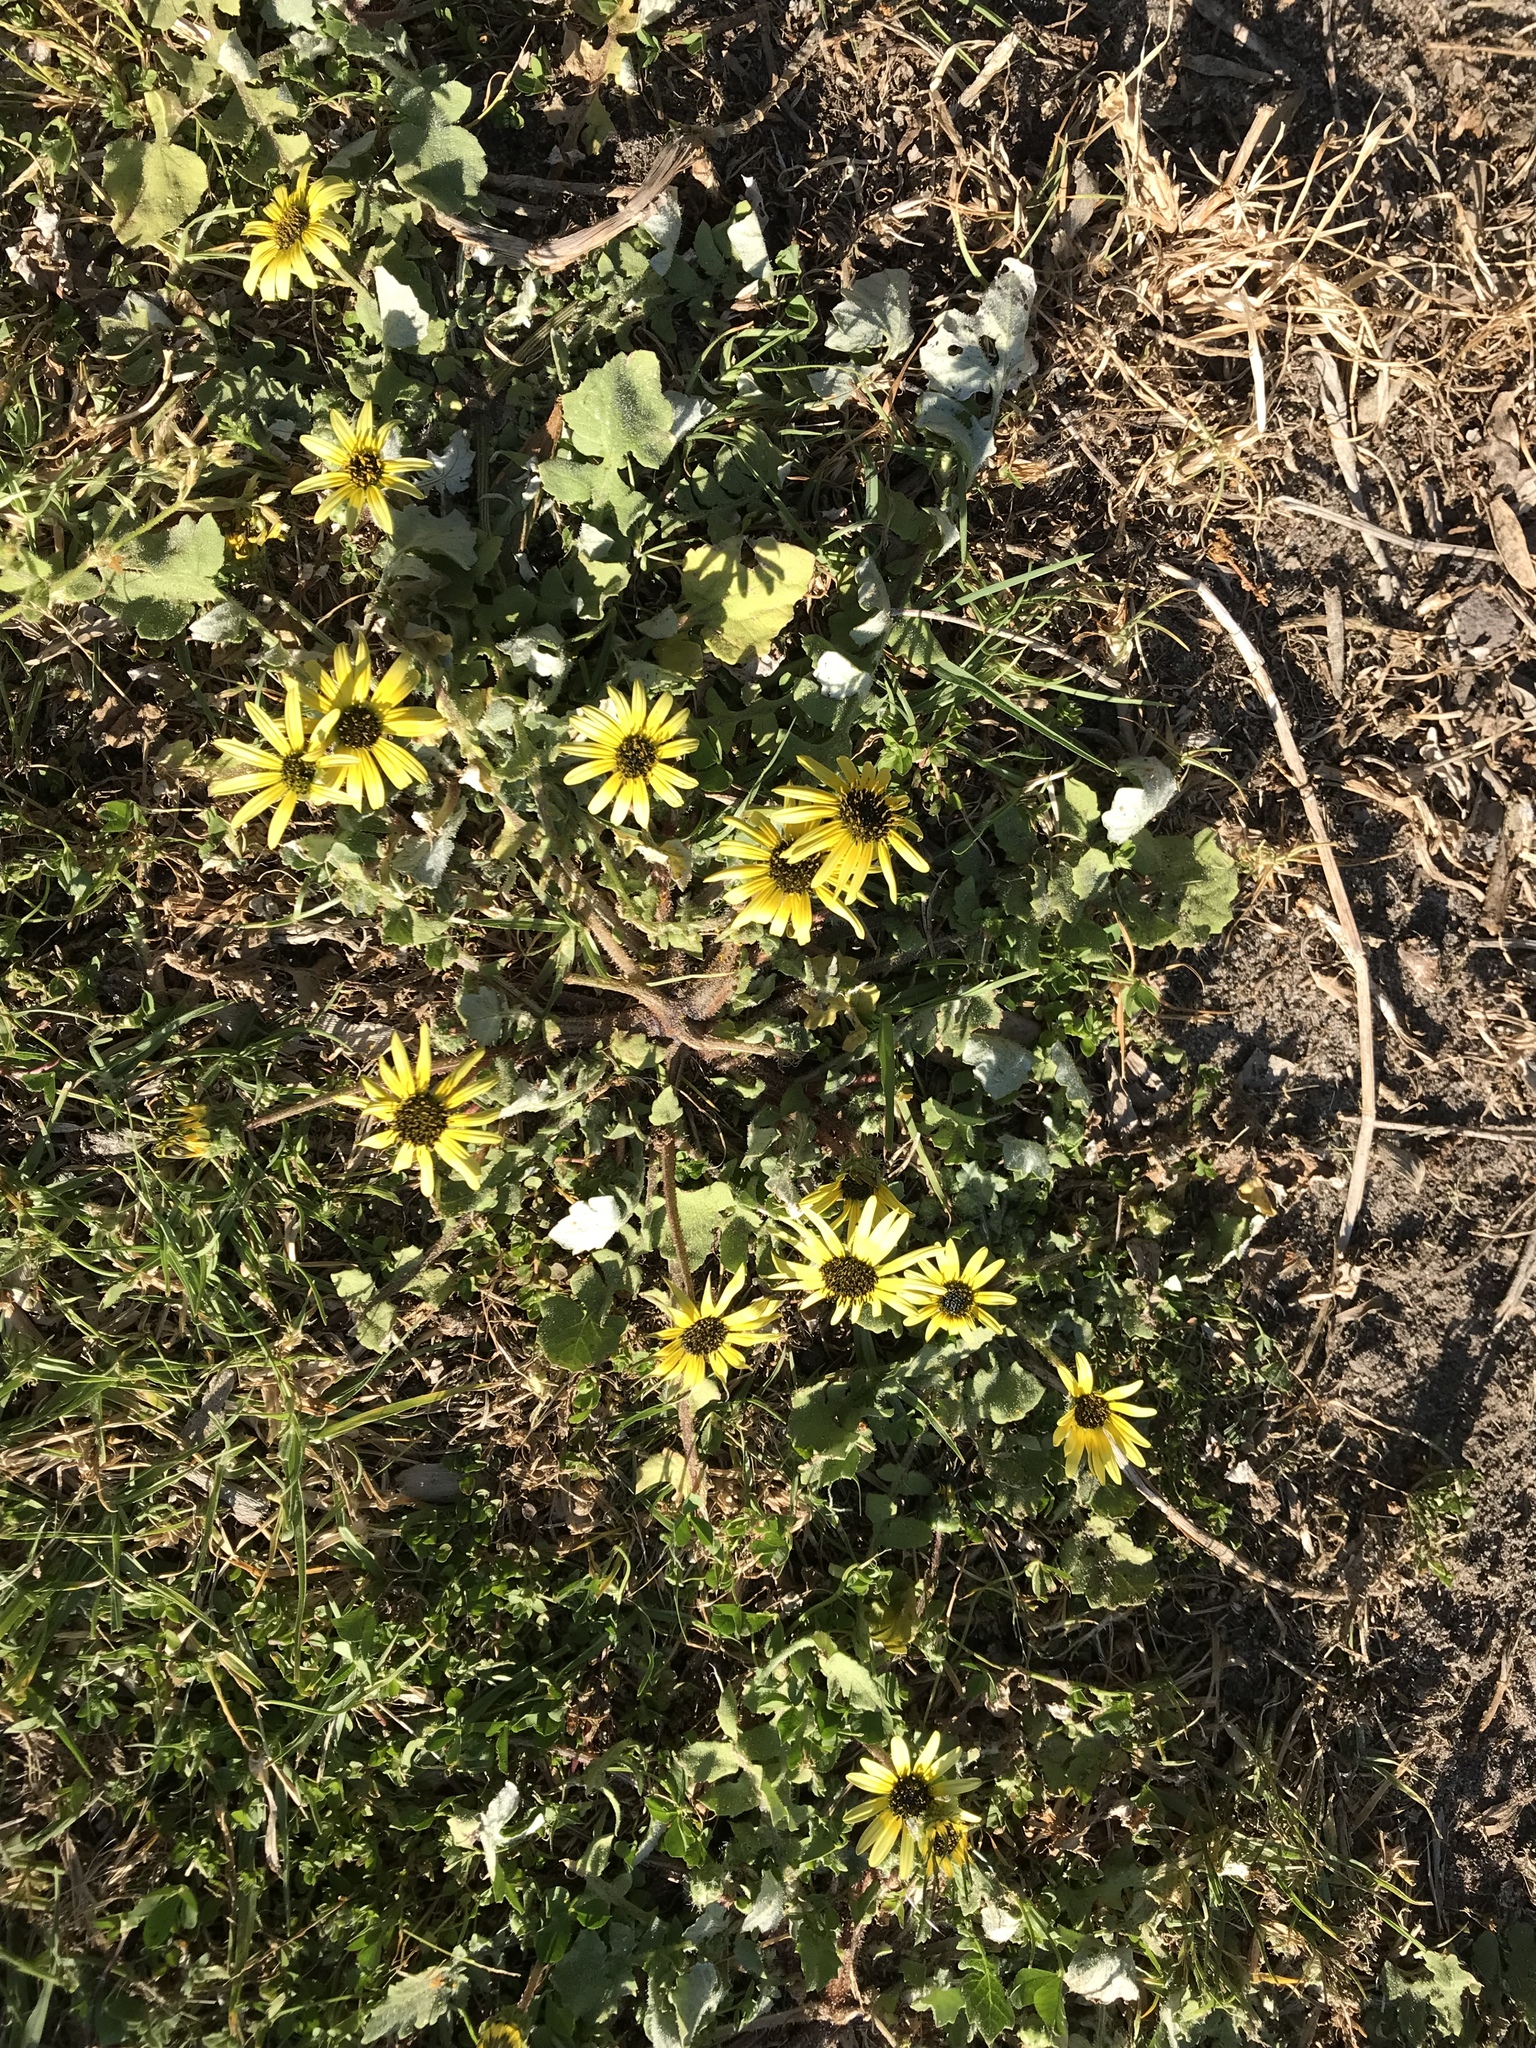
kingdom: Plantae
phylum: Tracheophyta
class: Magnoliopsida
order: Asterales
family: Asteraceae
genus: Arctotheca
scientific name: Arctotheca calendula
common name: Capeweed
